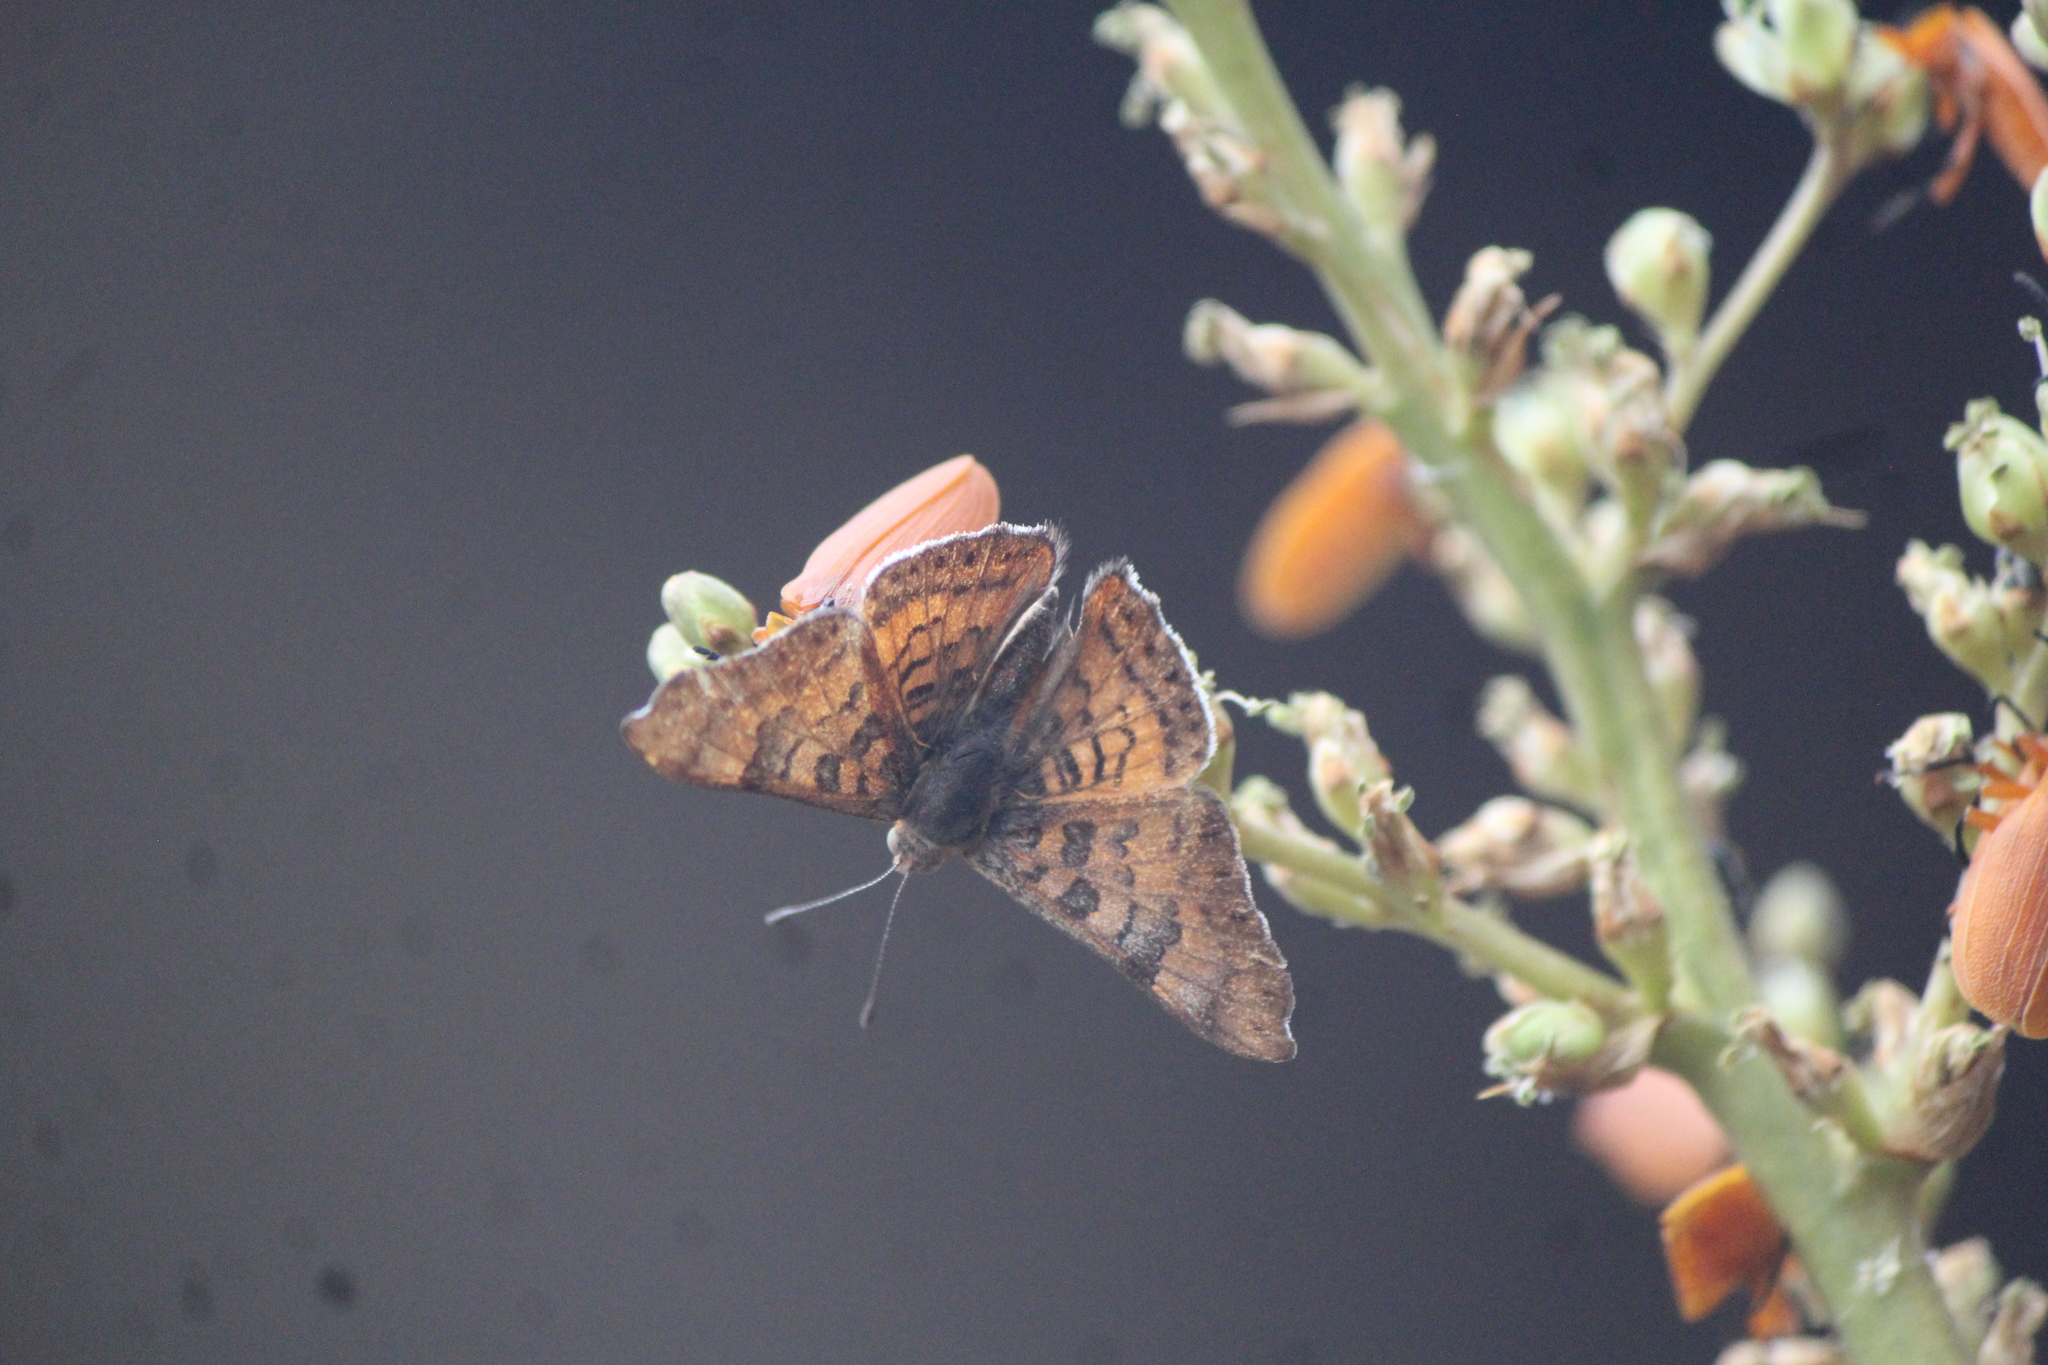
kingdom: Animalia
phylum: Arthropoda
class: Insecta
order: Lepidoptera
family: Riodinidae
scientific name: Riodinidae
